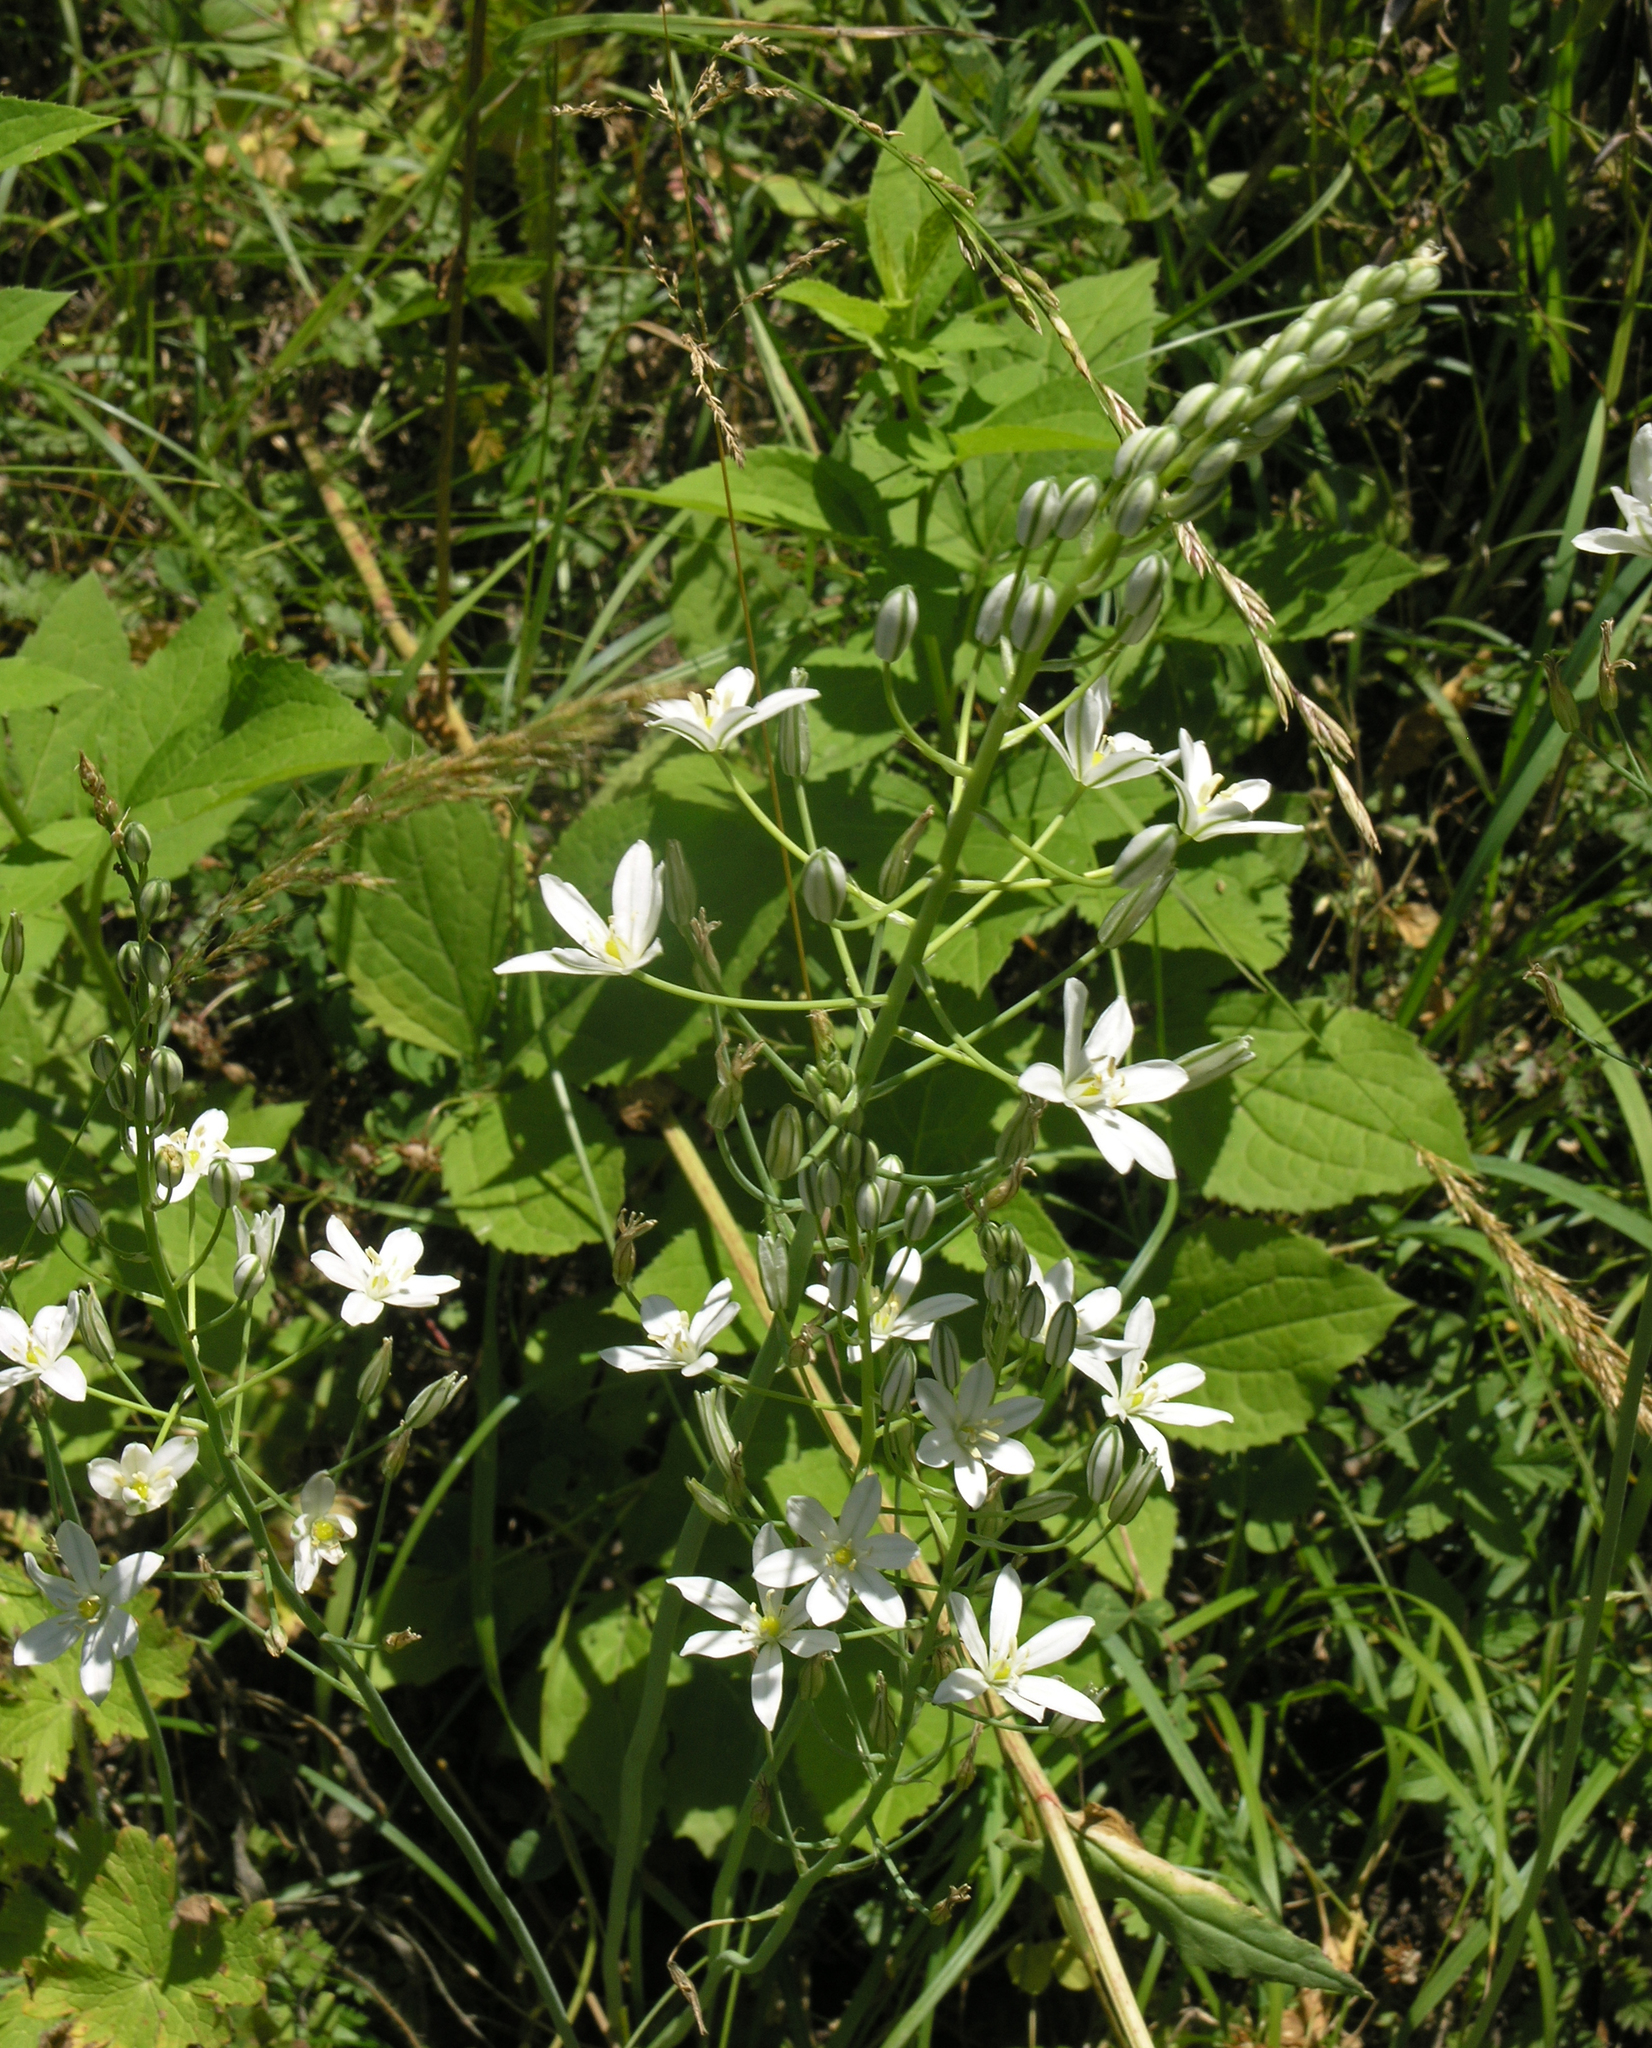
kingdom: Plantae
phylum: Tracheophyta
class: Liliopsida
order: Asparagales
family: Asparagaceae
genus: Ornithogalum
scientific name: Ornithogalum ponticum
